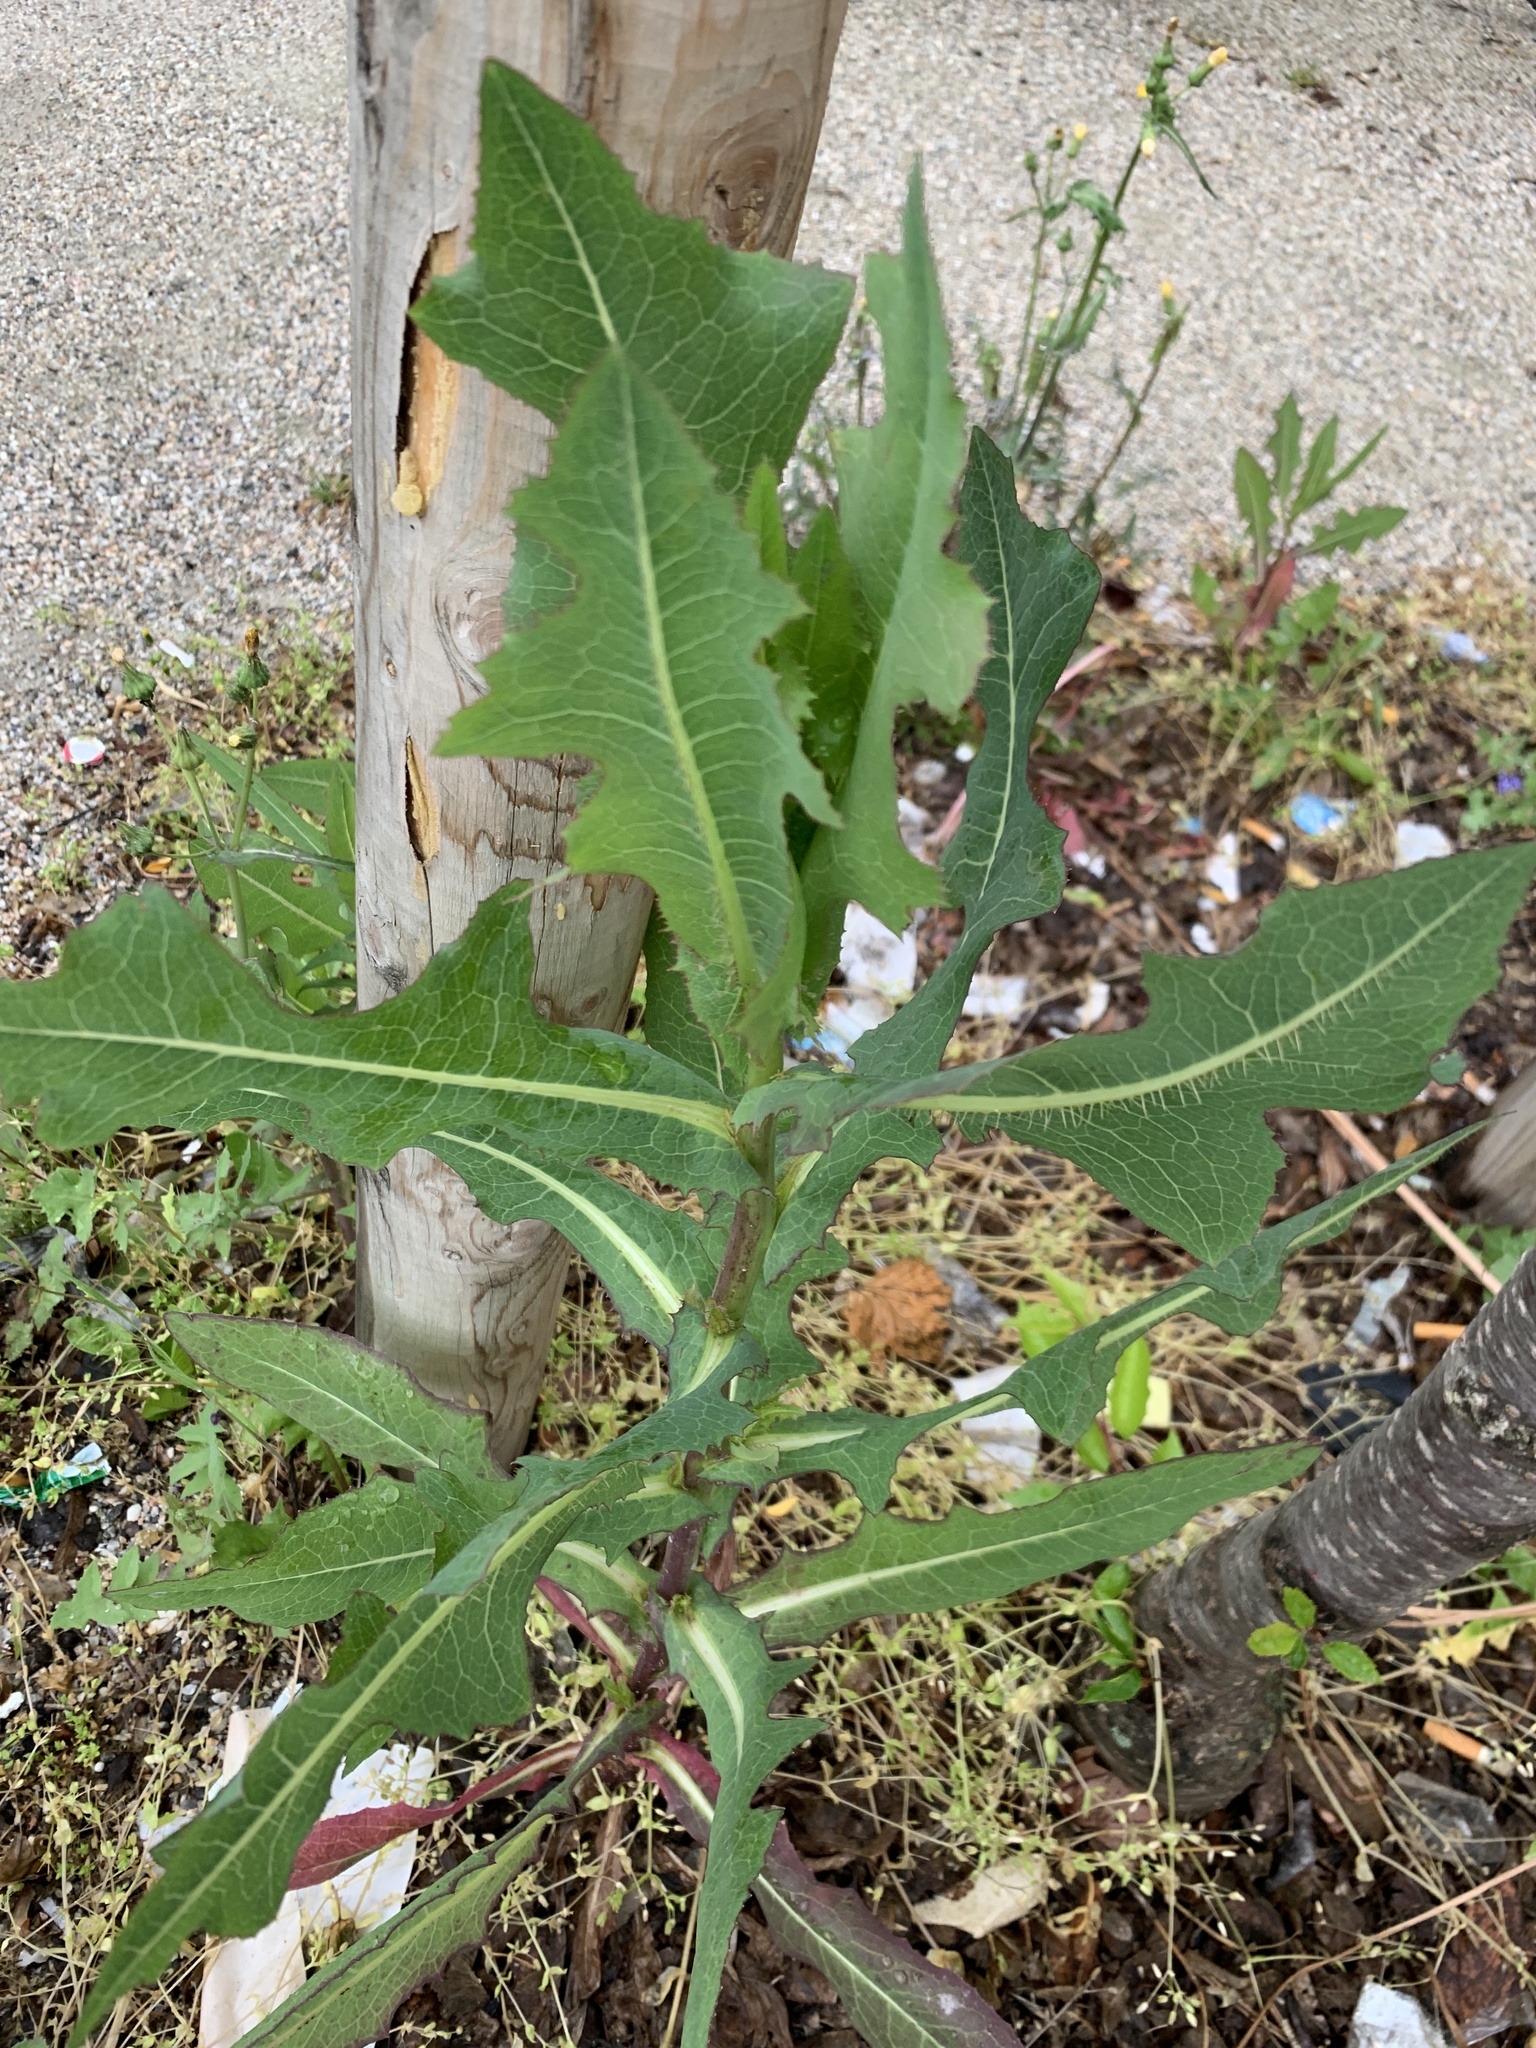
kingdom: Plantae
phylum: Tracheophyta
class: Magnoliopsida
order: Asterales
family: Asteraceae
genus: Lactuca
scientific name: Lactuca serriola
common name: Prickly lettuce
